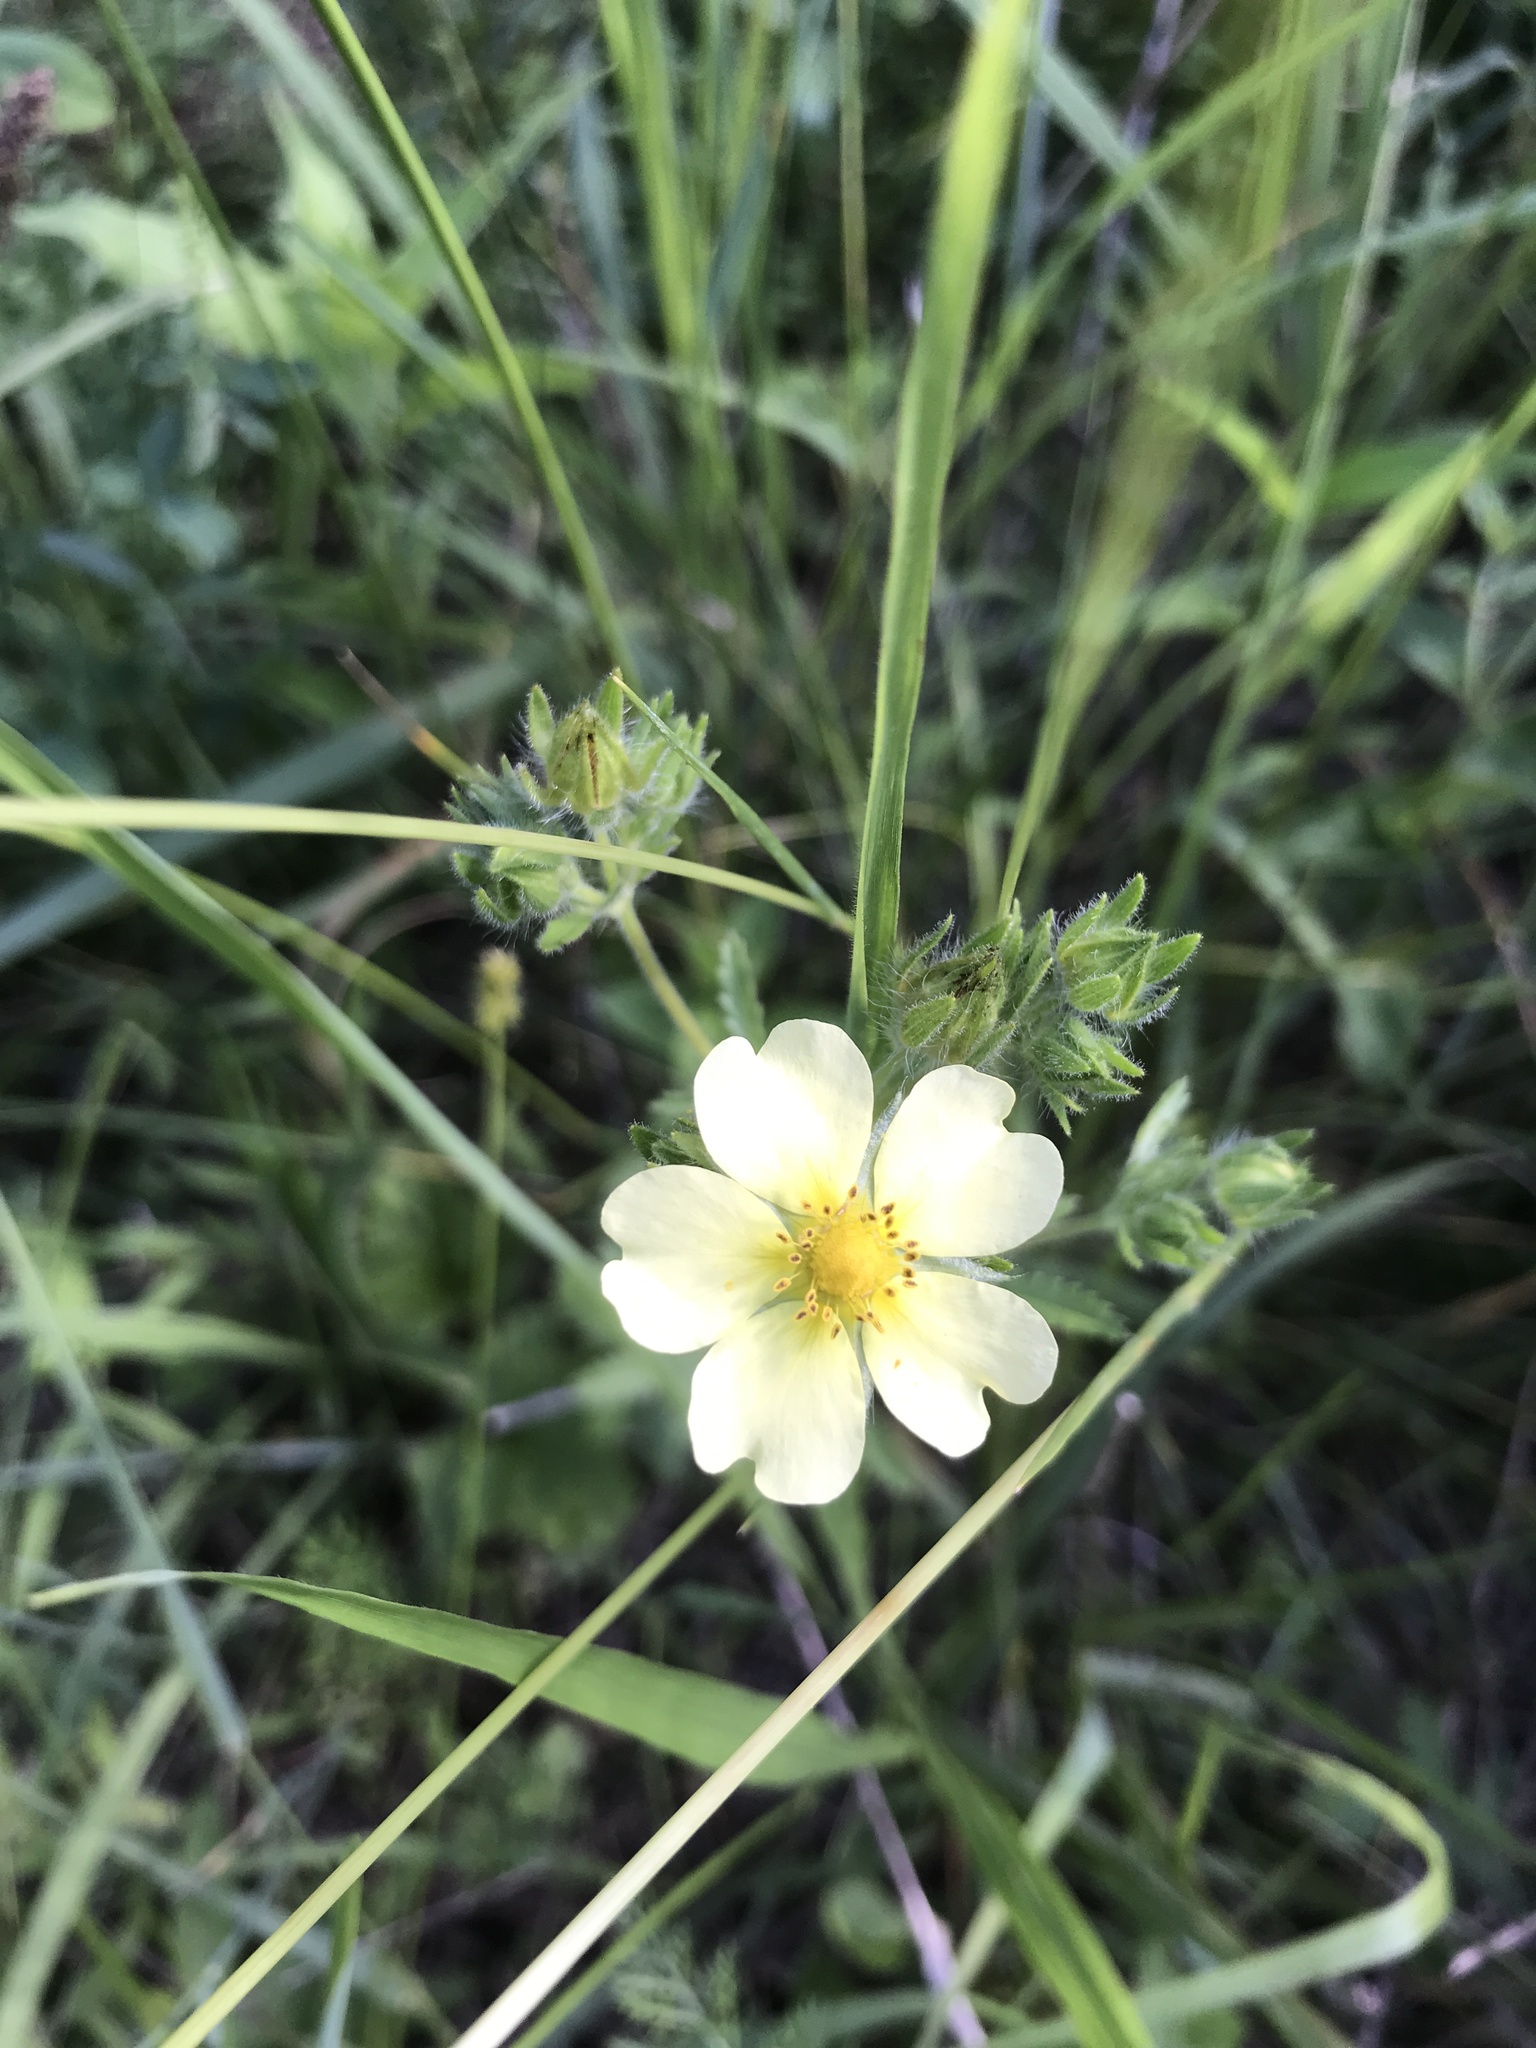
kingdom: Plantae
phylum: Tracheophyta
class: Magnoliopsida
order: Rosales
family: Rosaceae
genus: Potentilla
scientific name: Potentilla recta
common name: Sulphur cinquefoil
